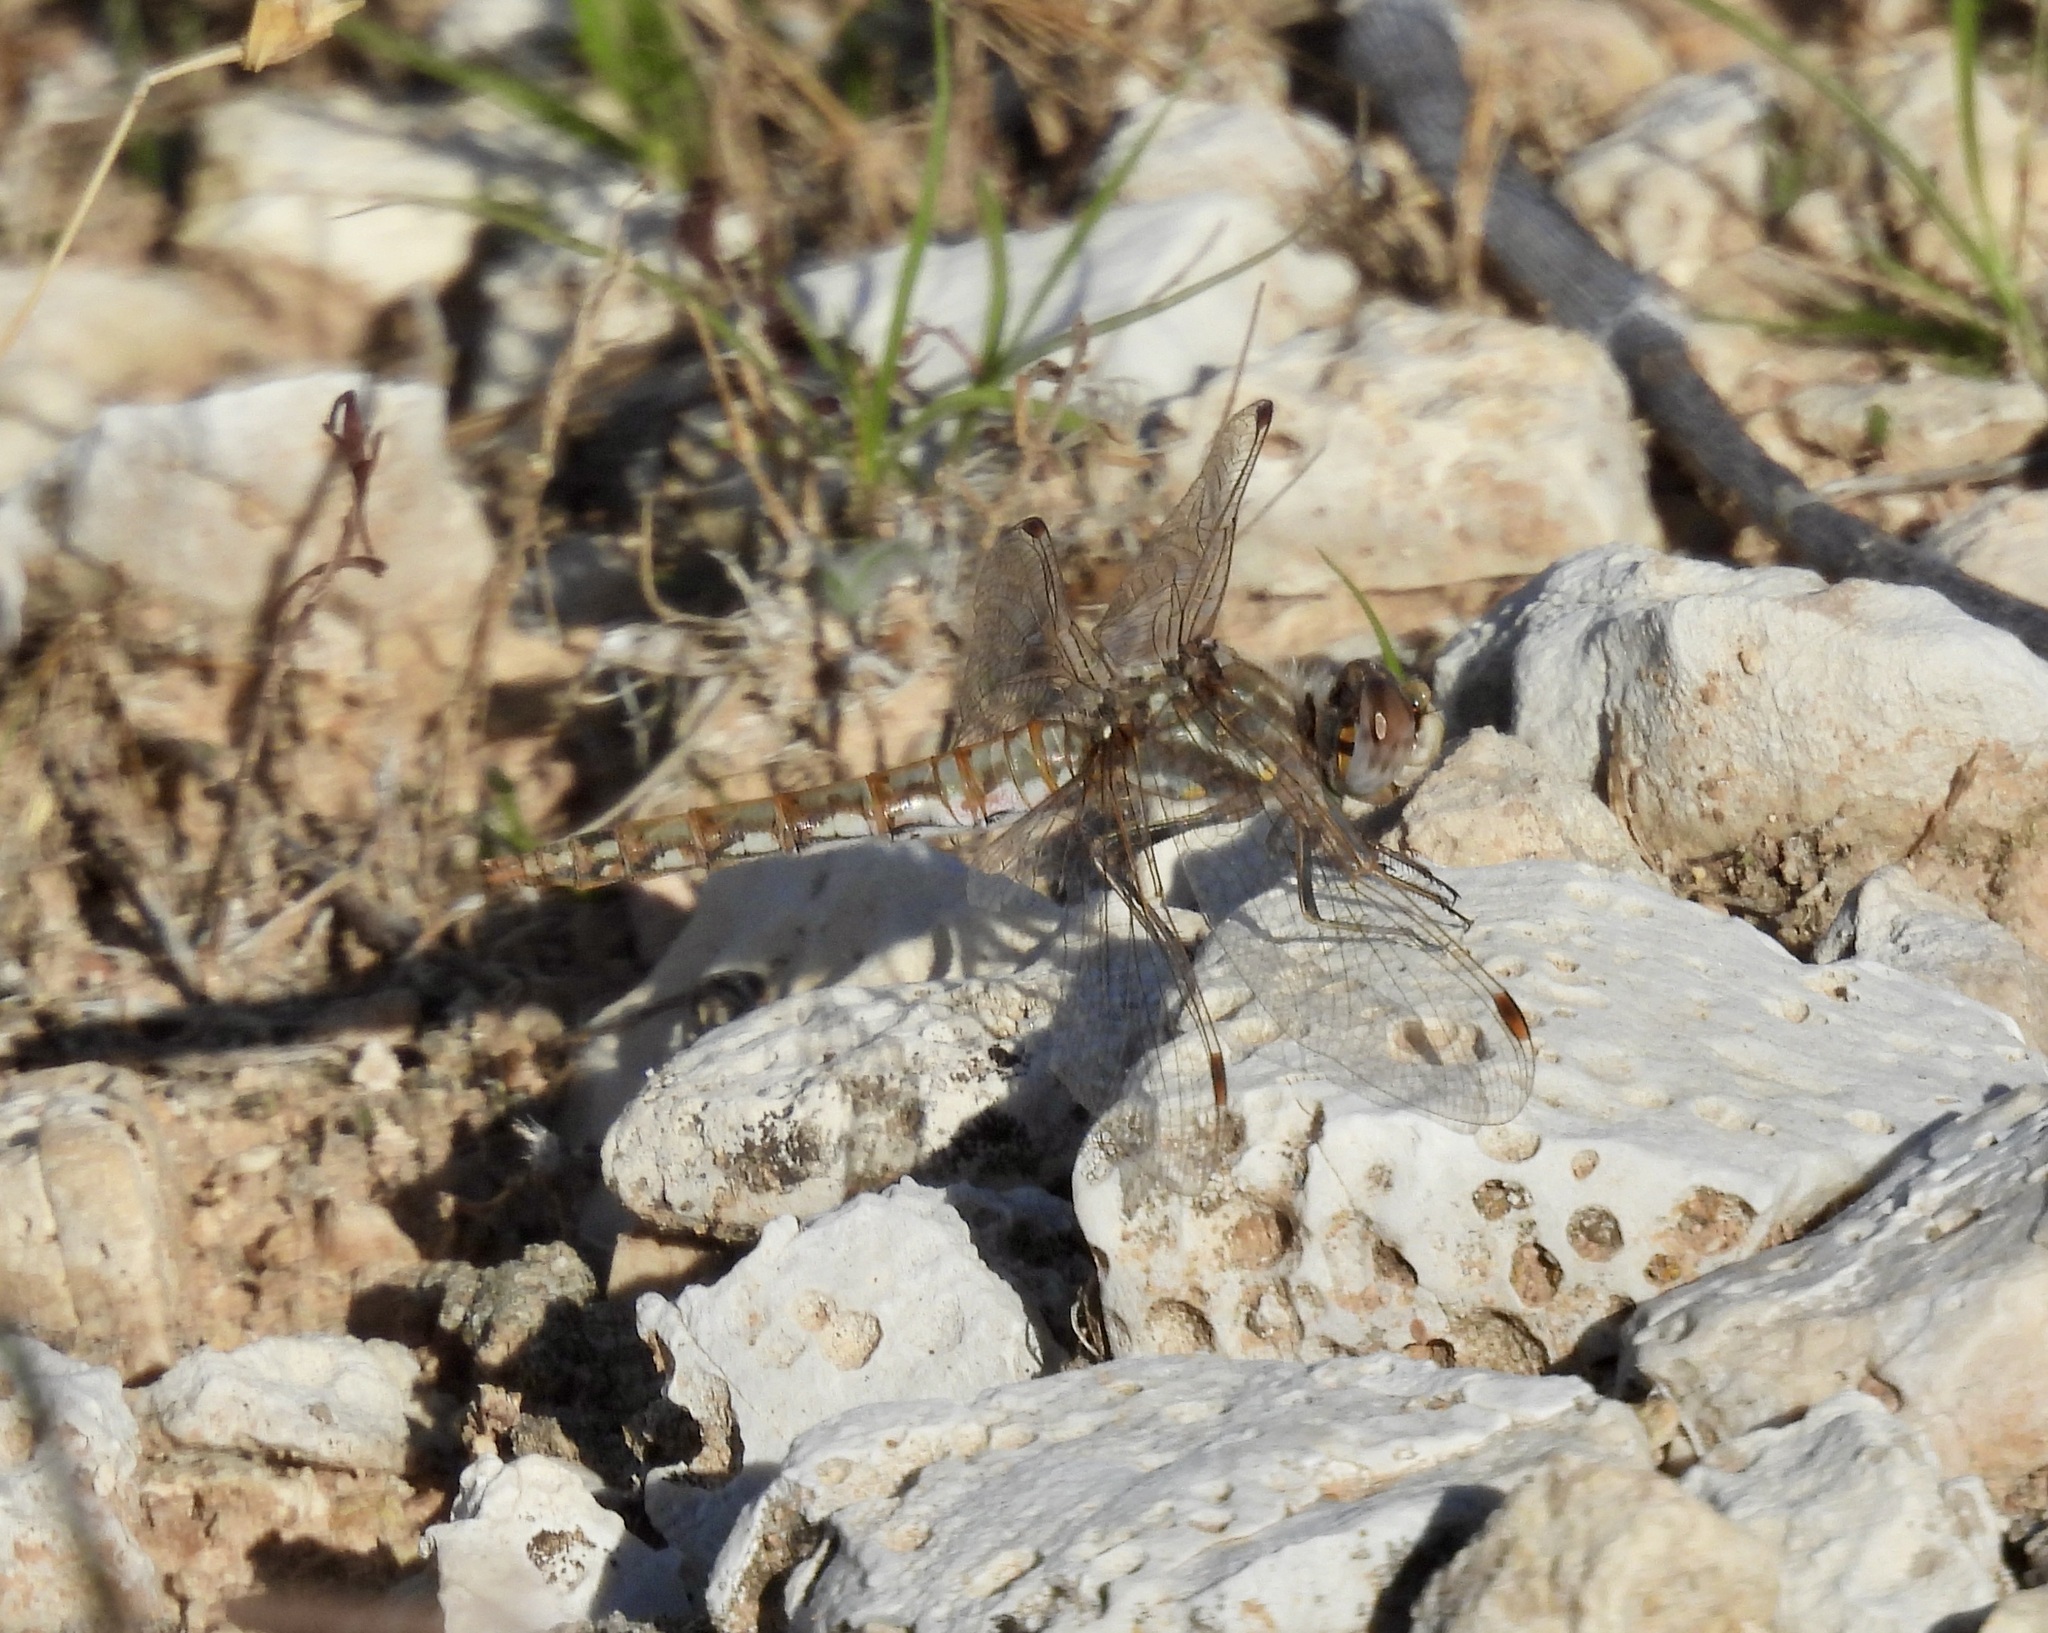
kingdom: Animalia
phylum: Arthropoda
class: Insecta
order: Odonata
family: Libellulidae
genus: Sympetrum
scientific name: Sympetrum corruptum
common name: Variegated meadowhawk
